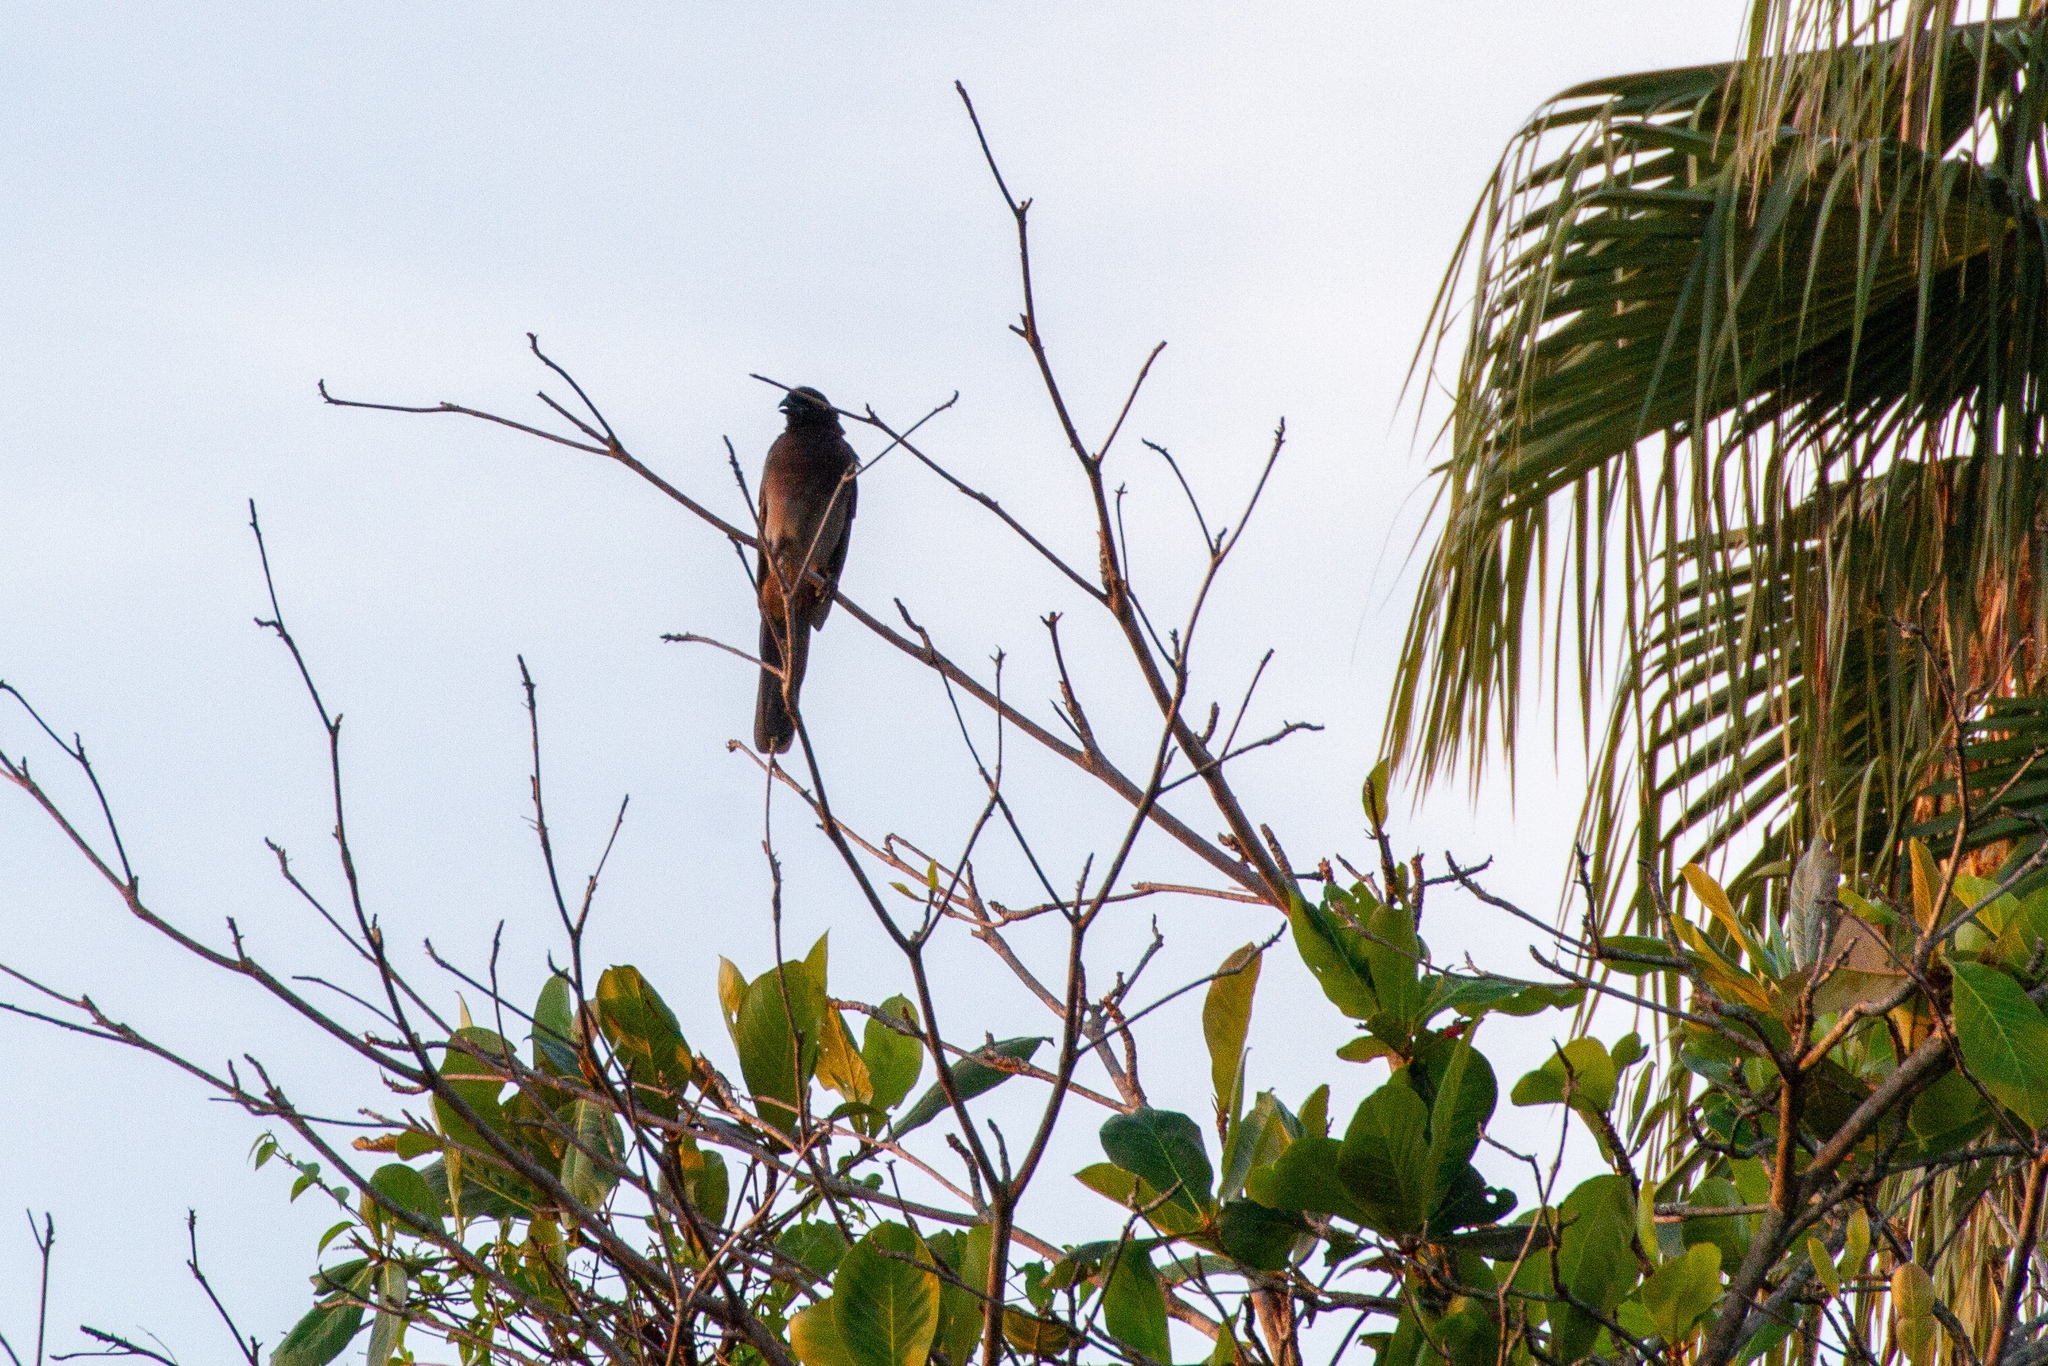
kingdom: Animalia
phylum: Chordata
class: Aves
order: Passeriformes
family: Corvidae
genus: Psilorhinus
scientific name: Psilorhinus morio
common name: Brown jay
